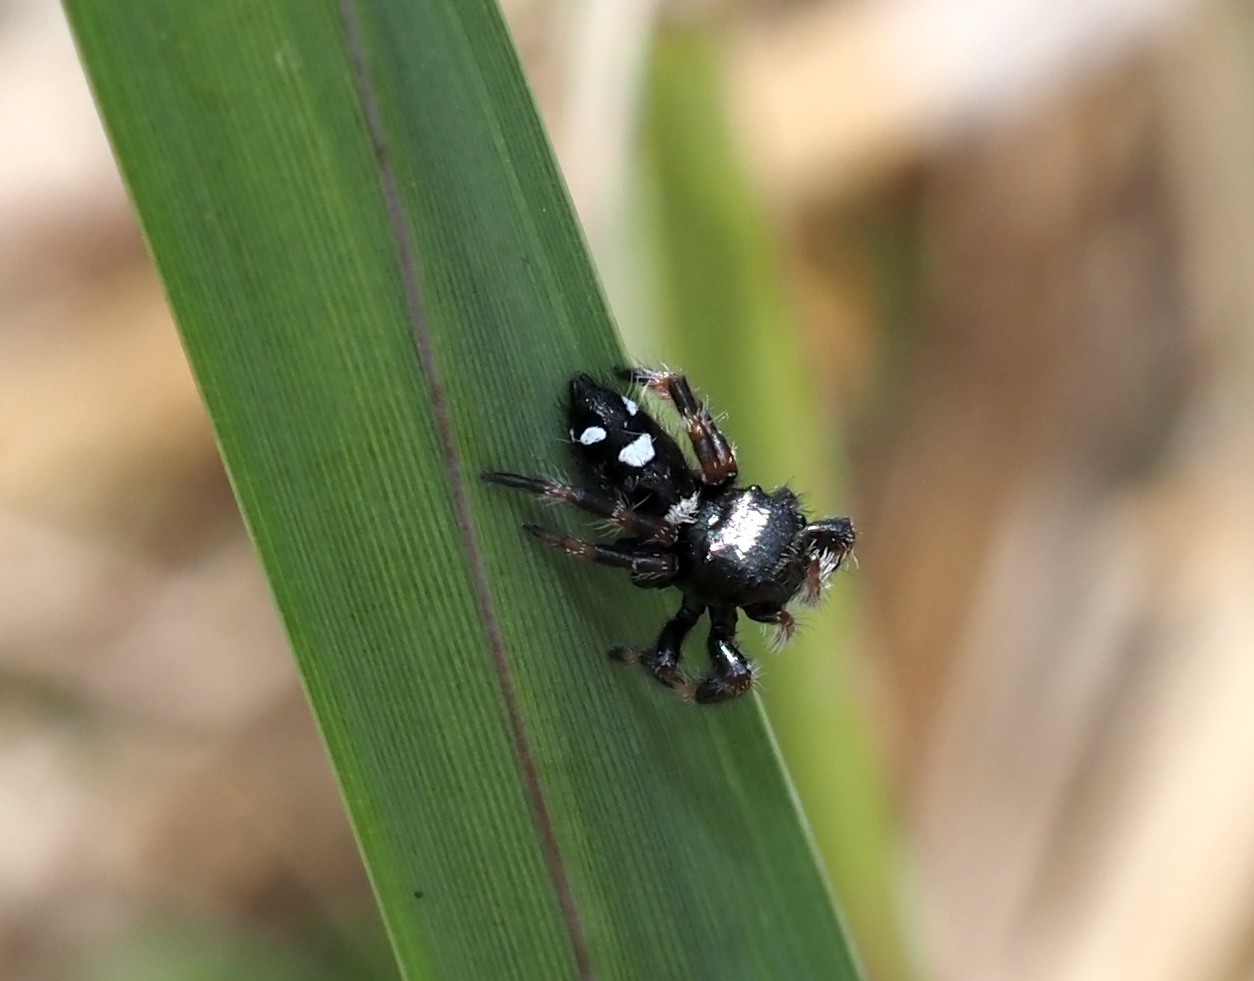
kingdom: Animalia
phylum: Arthropoda
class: Arachnida
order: Araneae
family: Salticidae
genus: Phidippus
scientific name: Phidippus regius
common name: Regal jumper
